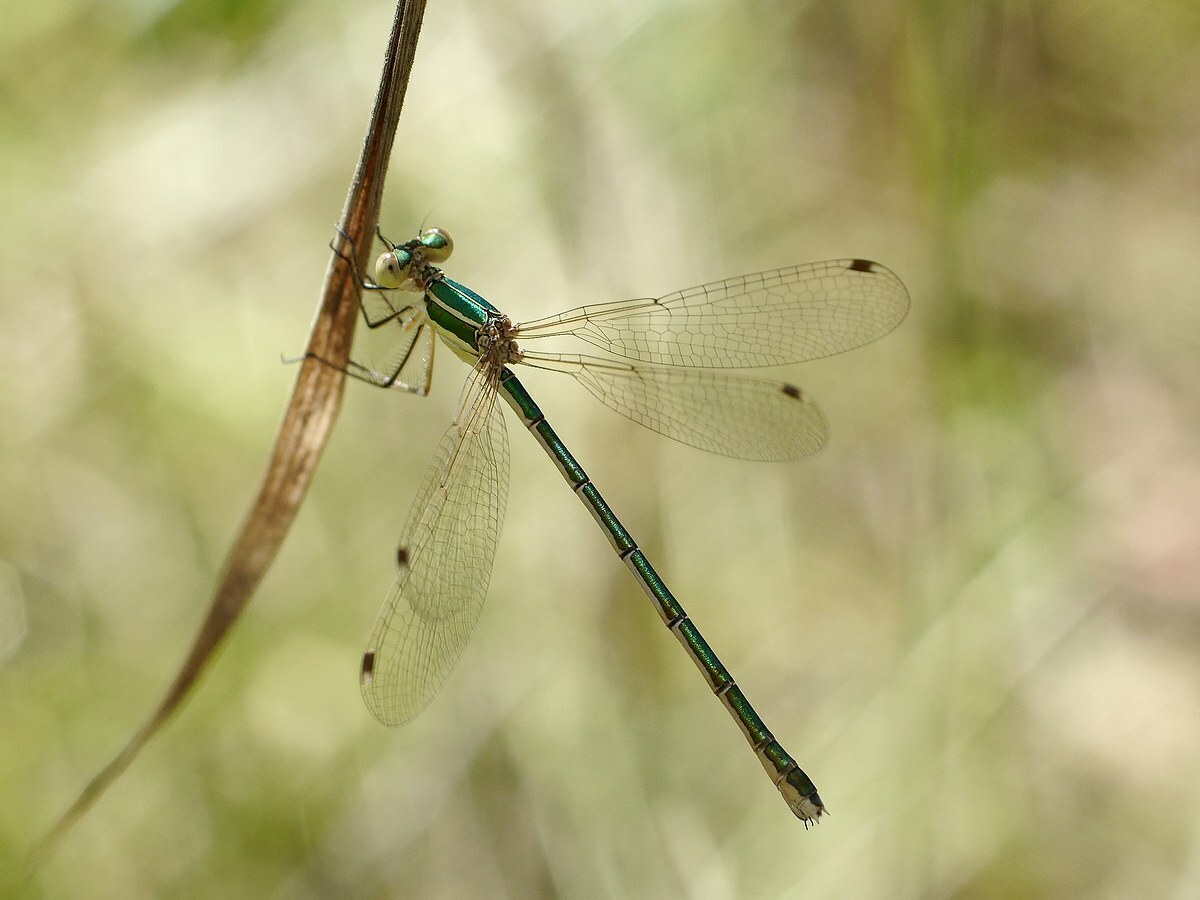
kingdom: Animalia
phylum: Arthropoda
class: Insecta
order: Odonata
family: Lestidae
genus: Lestes
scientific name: Lestes barbarus
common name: Migrant spreadwing
